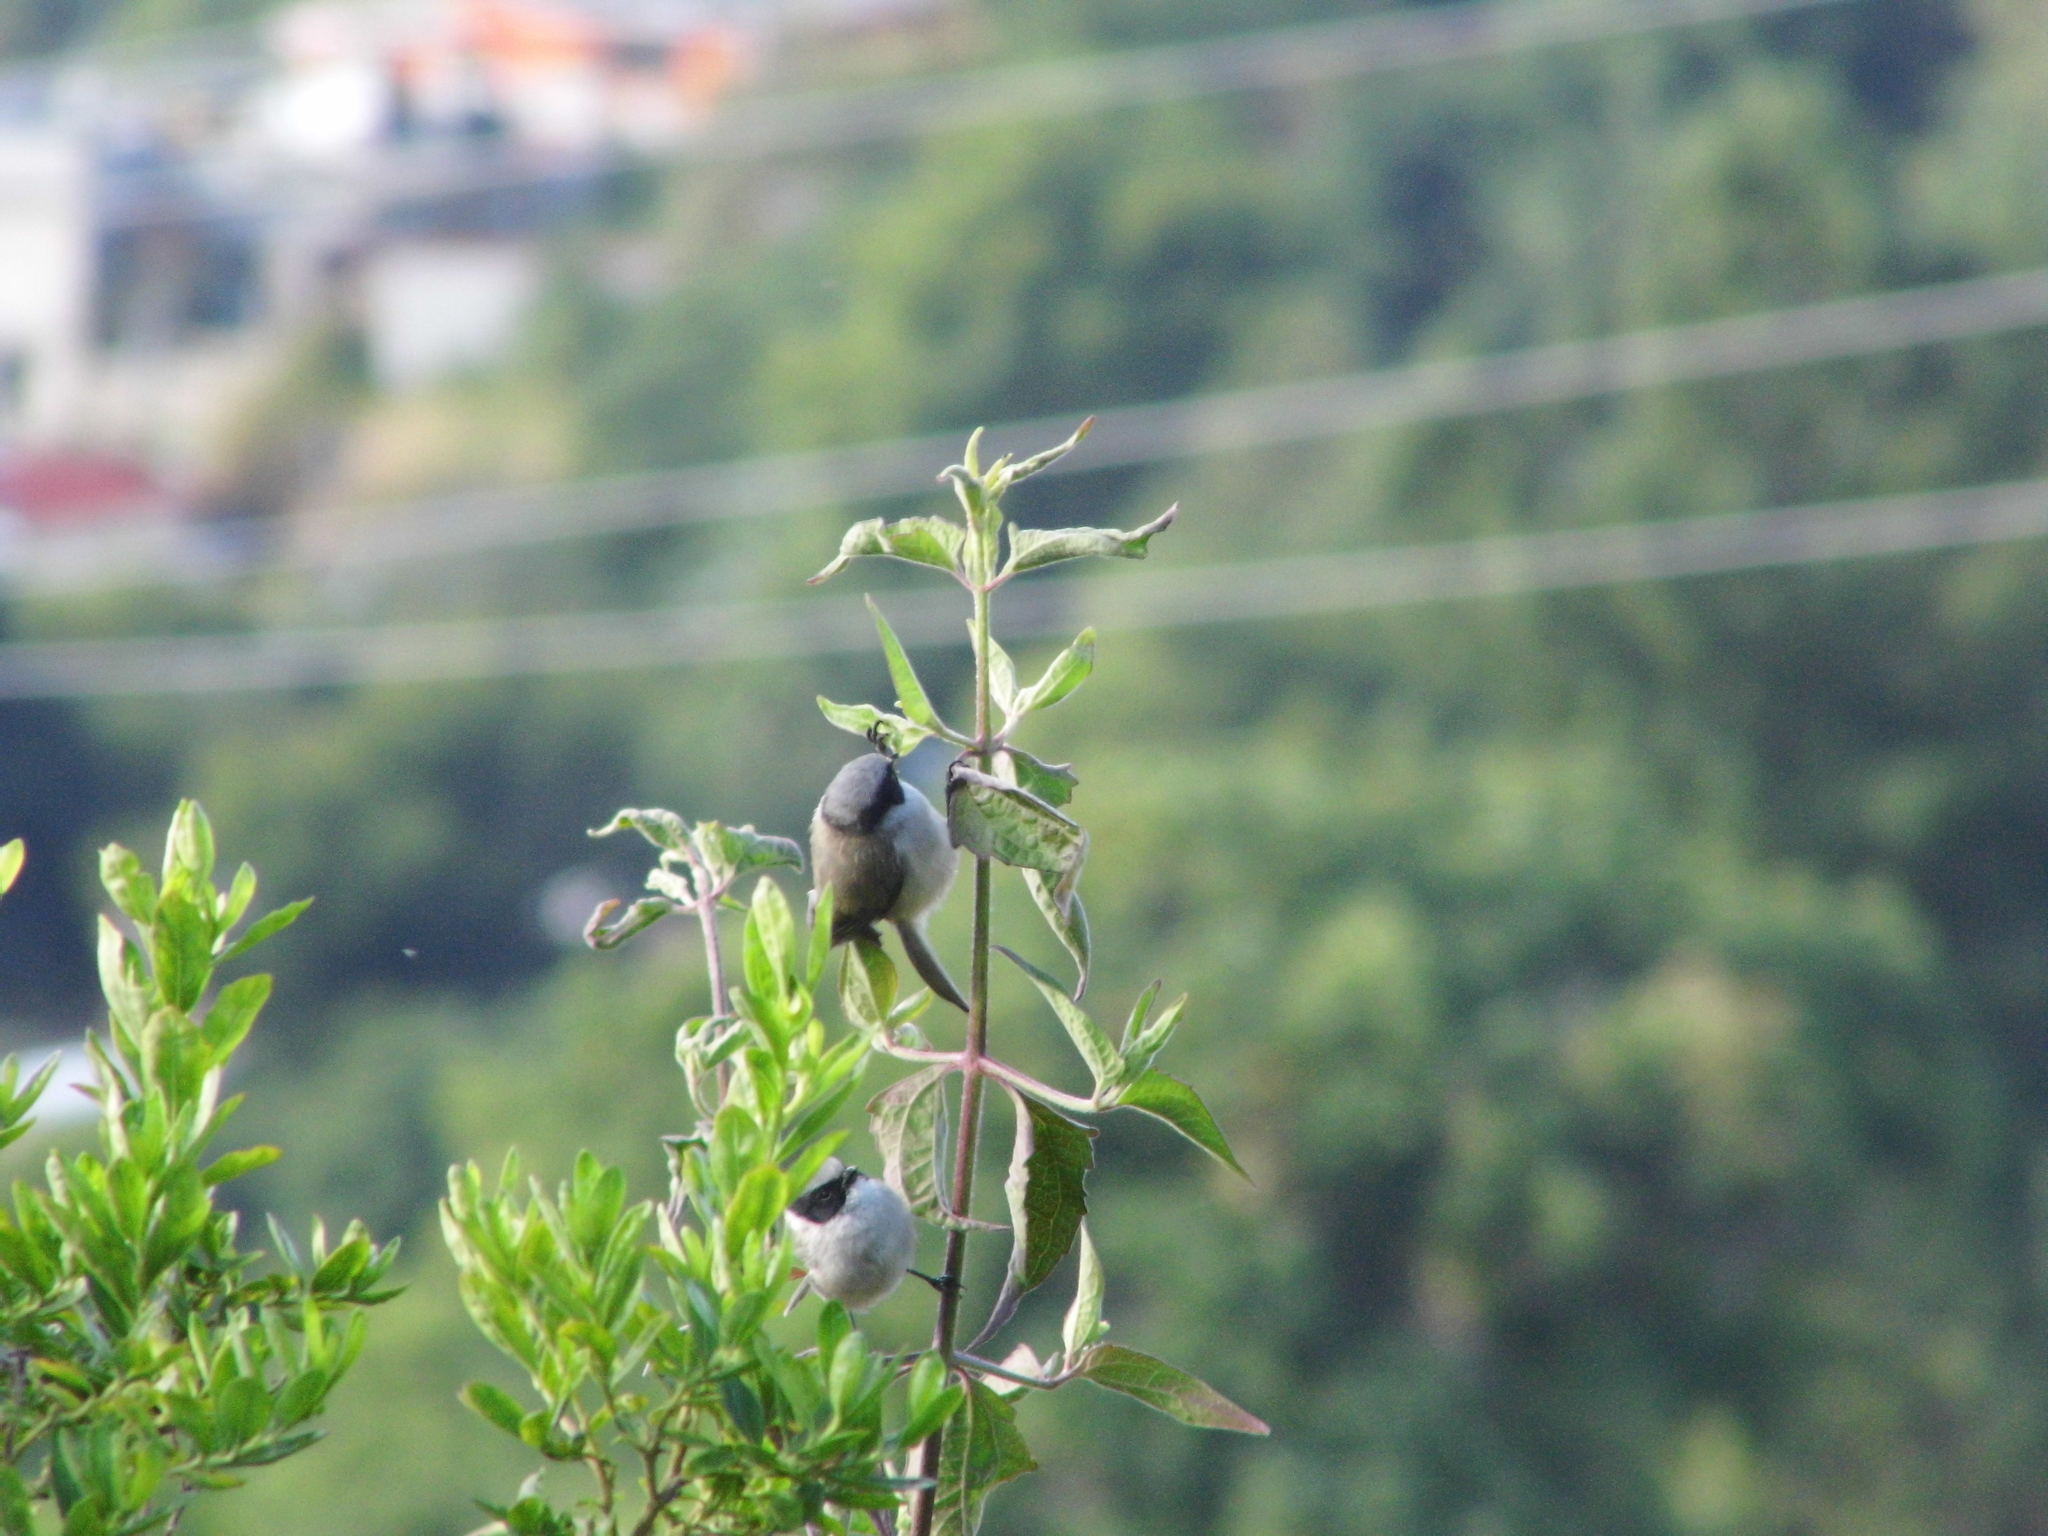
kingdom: Animalia
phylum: Chordata
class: Aves
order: Passeriformes
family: Aegithalidae
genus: Psaltriparus
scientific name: Psaltriparus minimus
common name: American bushtit
